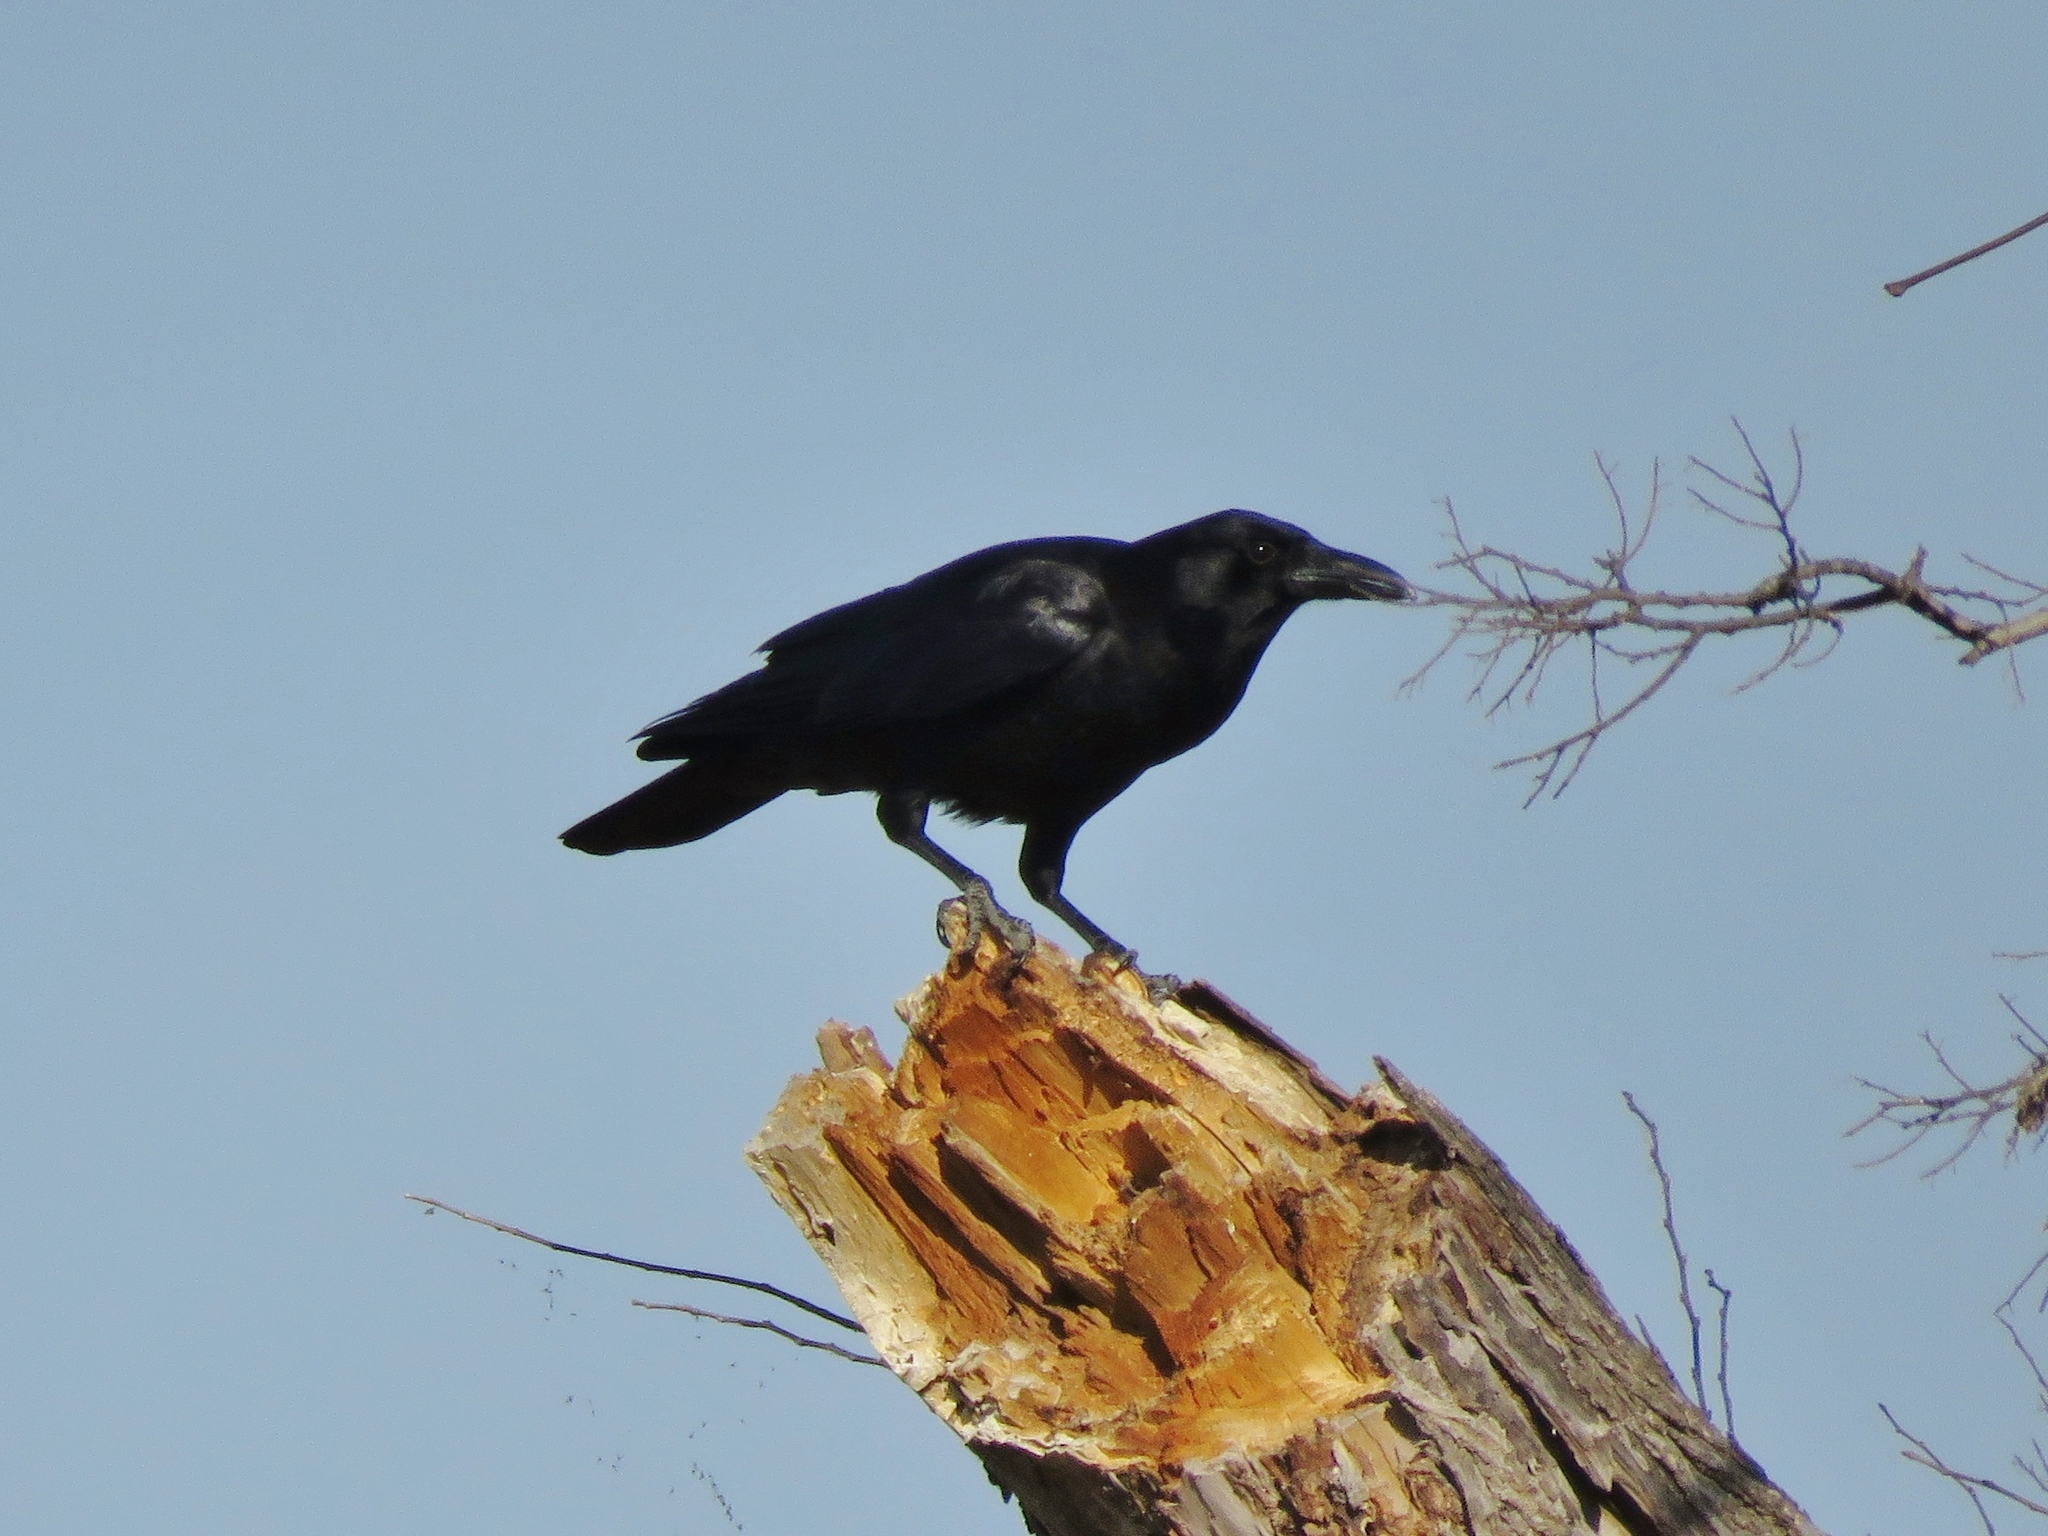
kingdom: Animalia
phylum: Chordata
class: Aves
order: Passeriformes
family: Corvidae
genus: Corvus
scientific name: Corvus brachyrhynchos
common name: American crow
